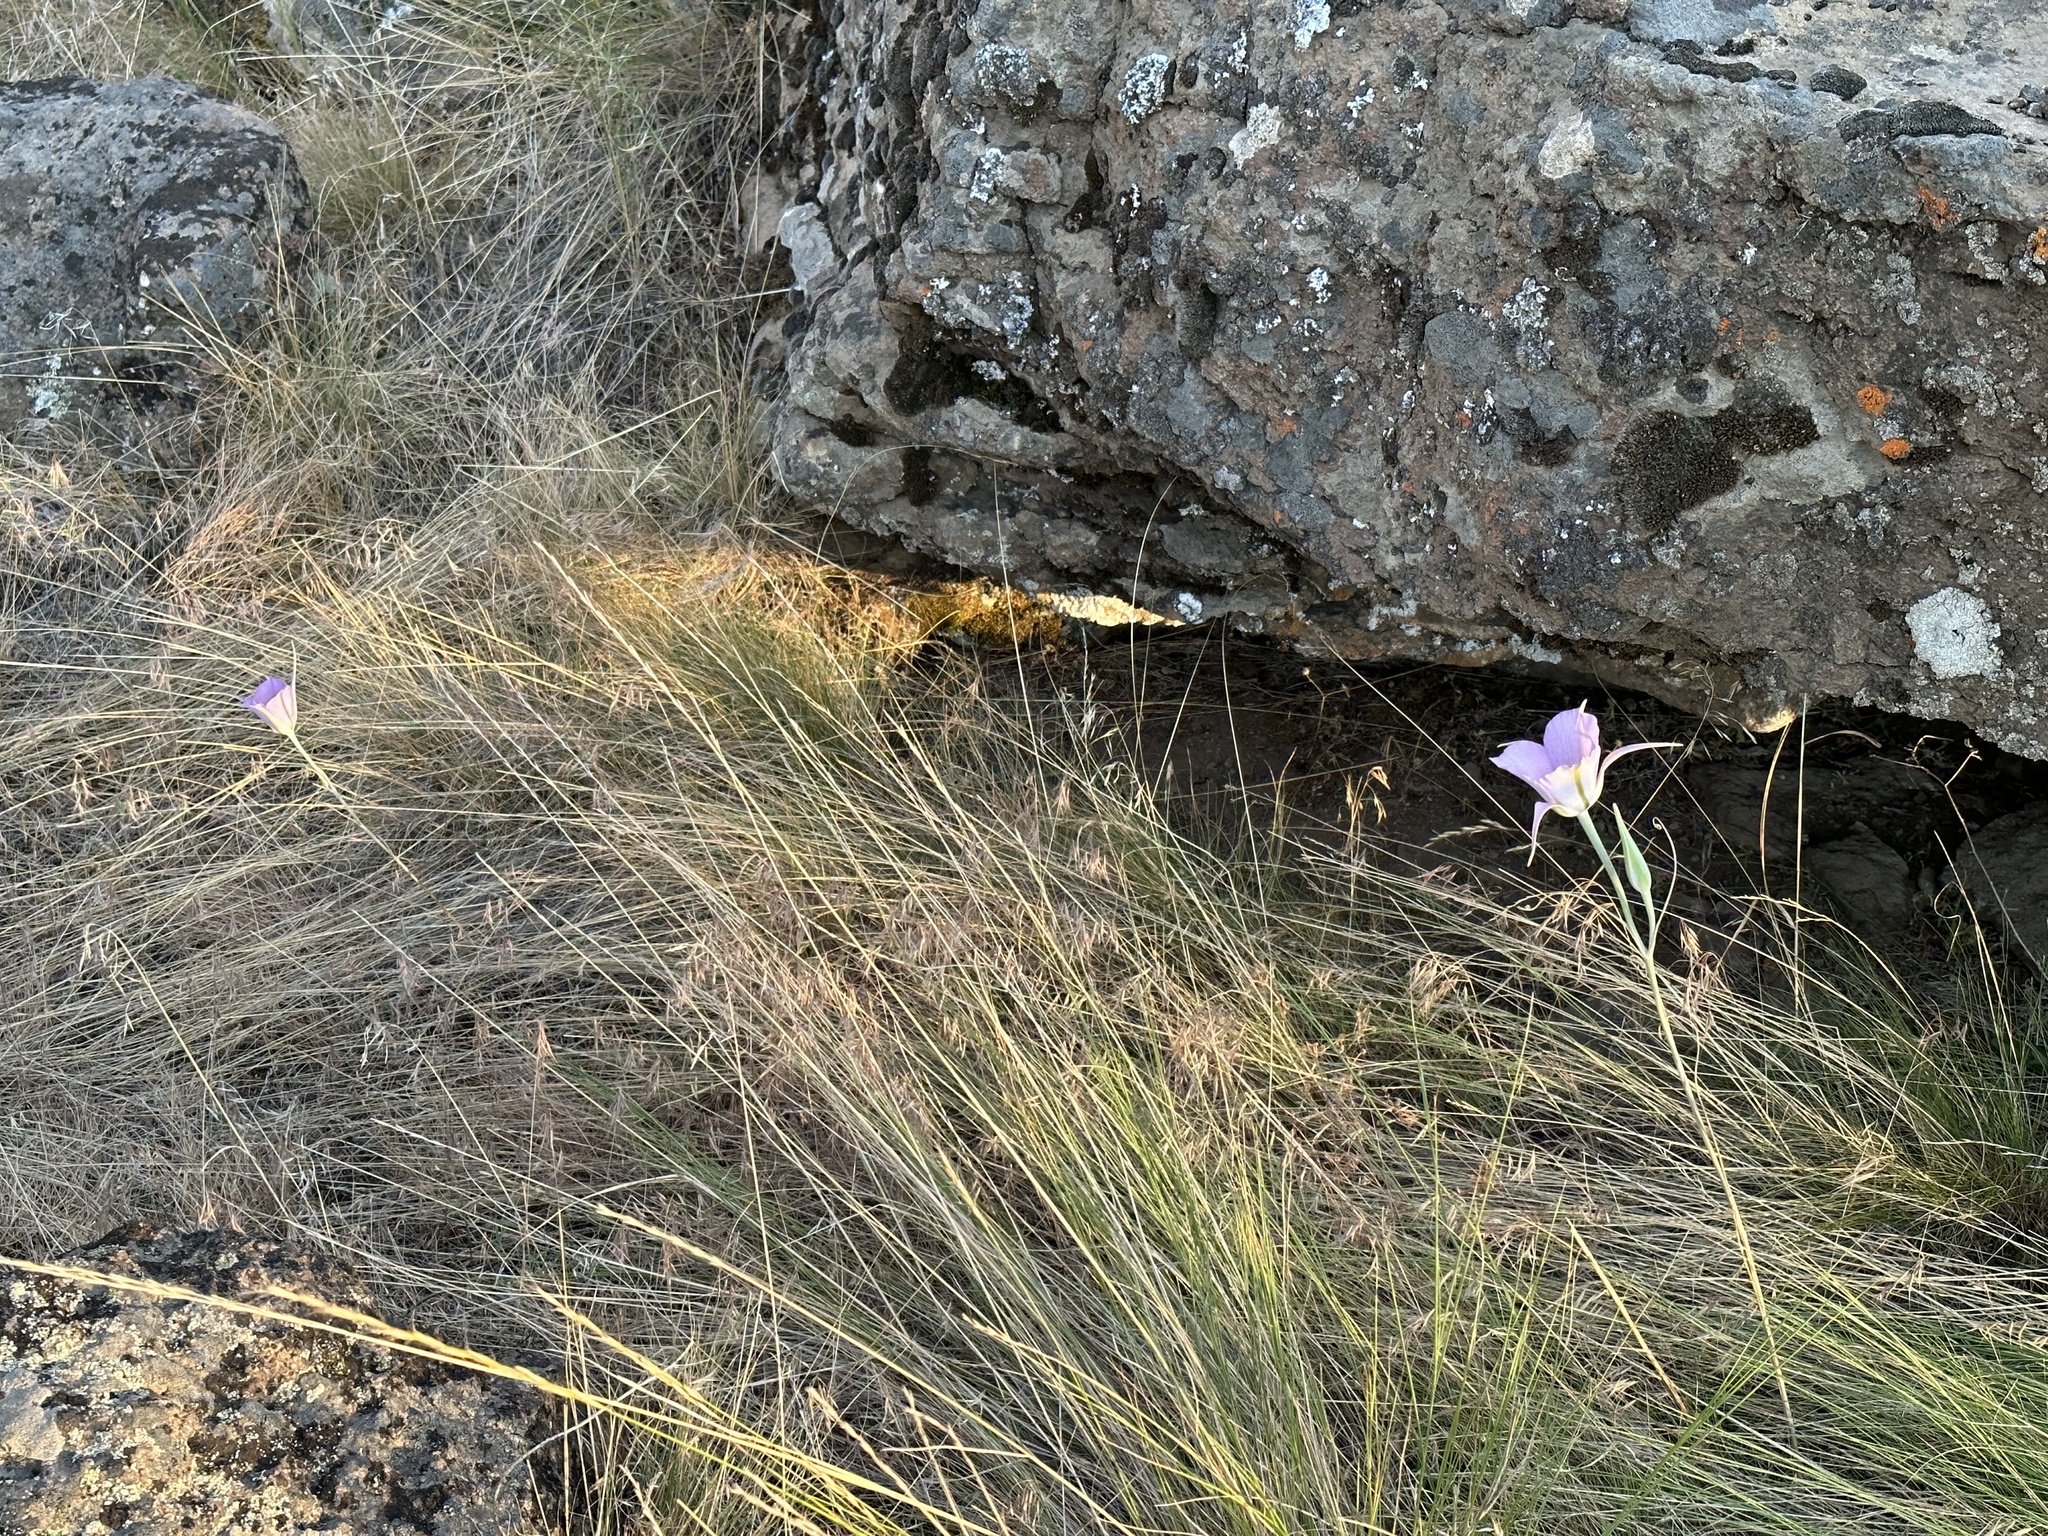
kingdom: Plantae
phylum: Tracheophyta
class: Liliopsida
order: Liliales
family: Liliaceae
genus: Calochortus
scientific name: Calochortus macrocarpus
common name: Green-band mariposa lily
